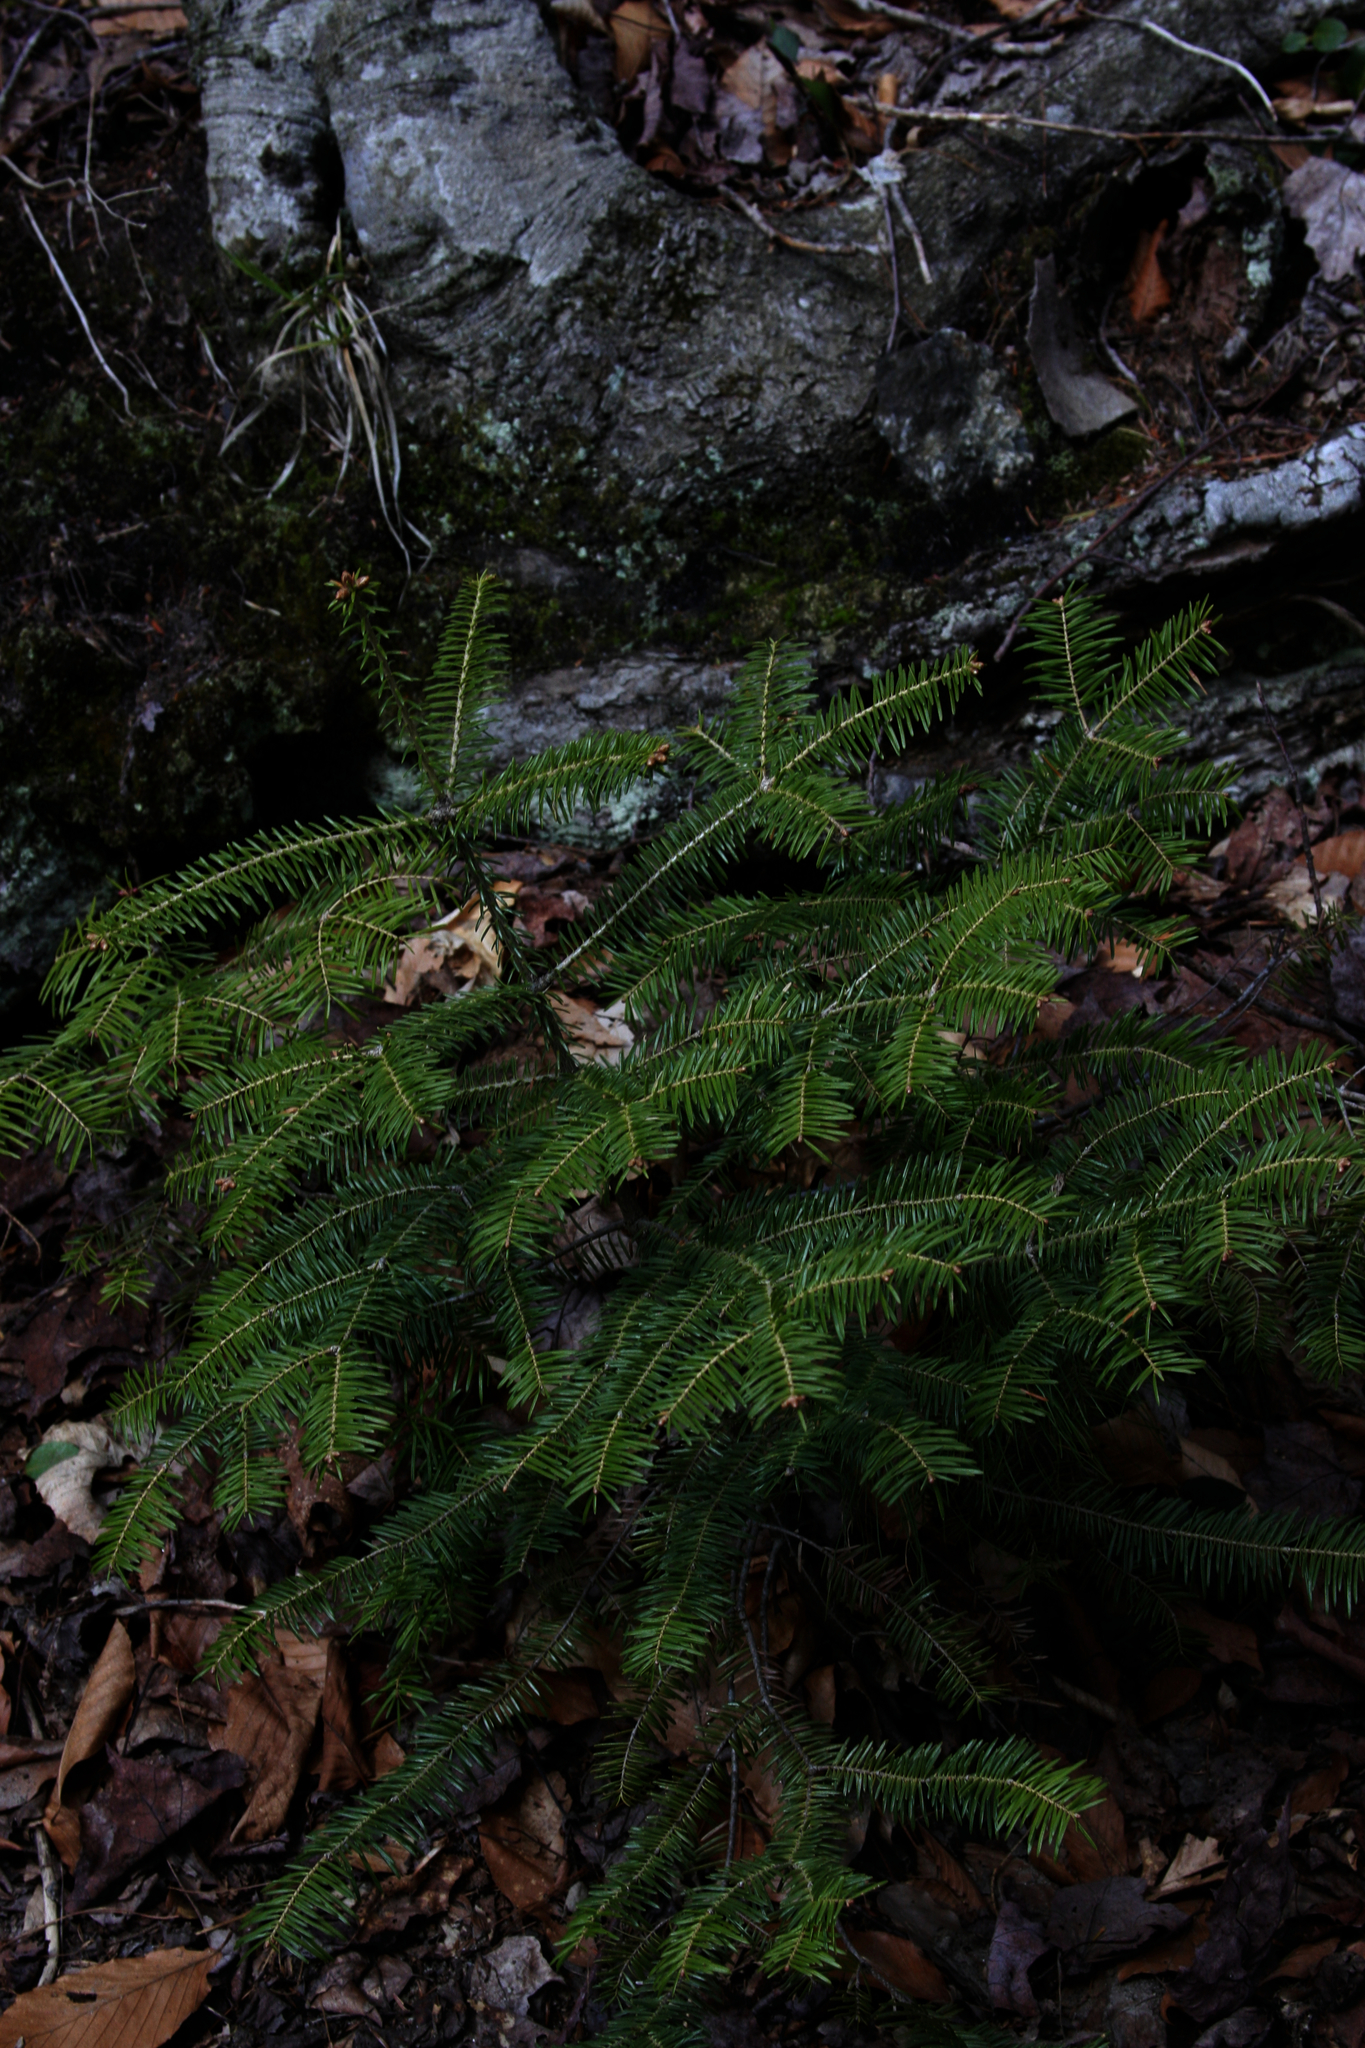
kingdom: Plantae
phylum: Tracheophyta
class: Pinopsida
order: Pinales
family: Pinaceae
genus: Abies
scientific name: Abies balsamea
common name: Balsam fir
